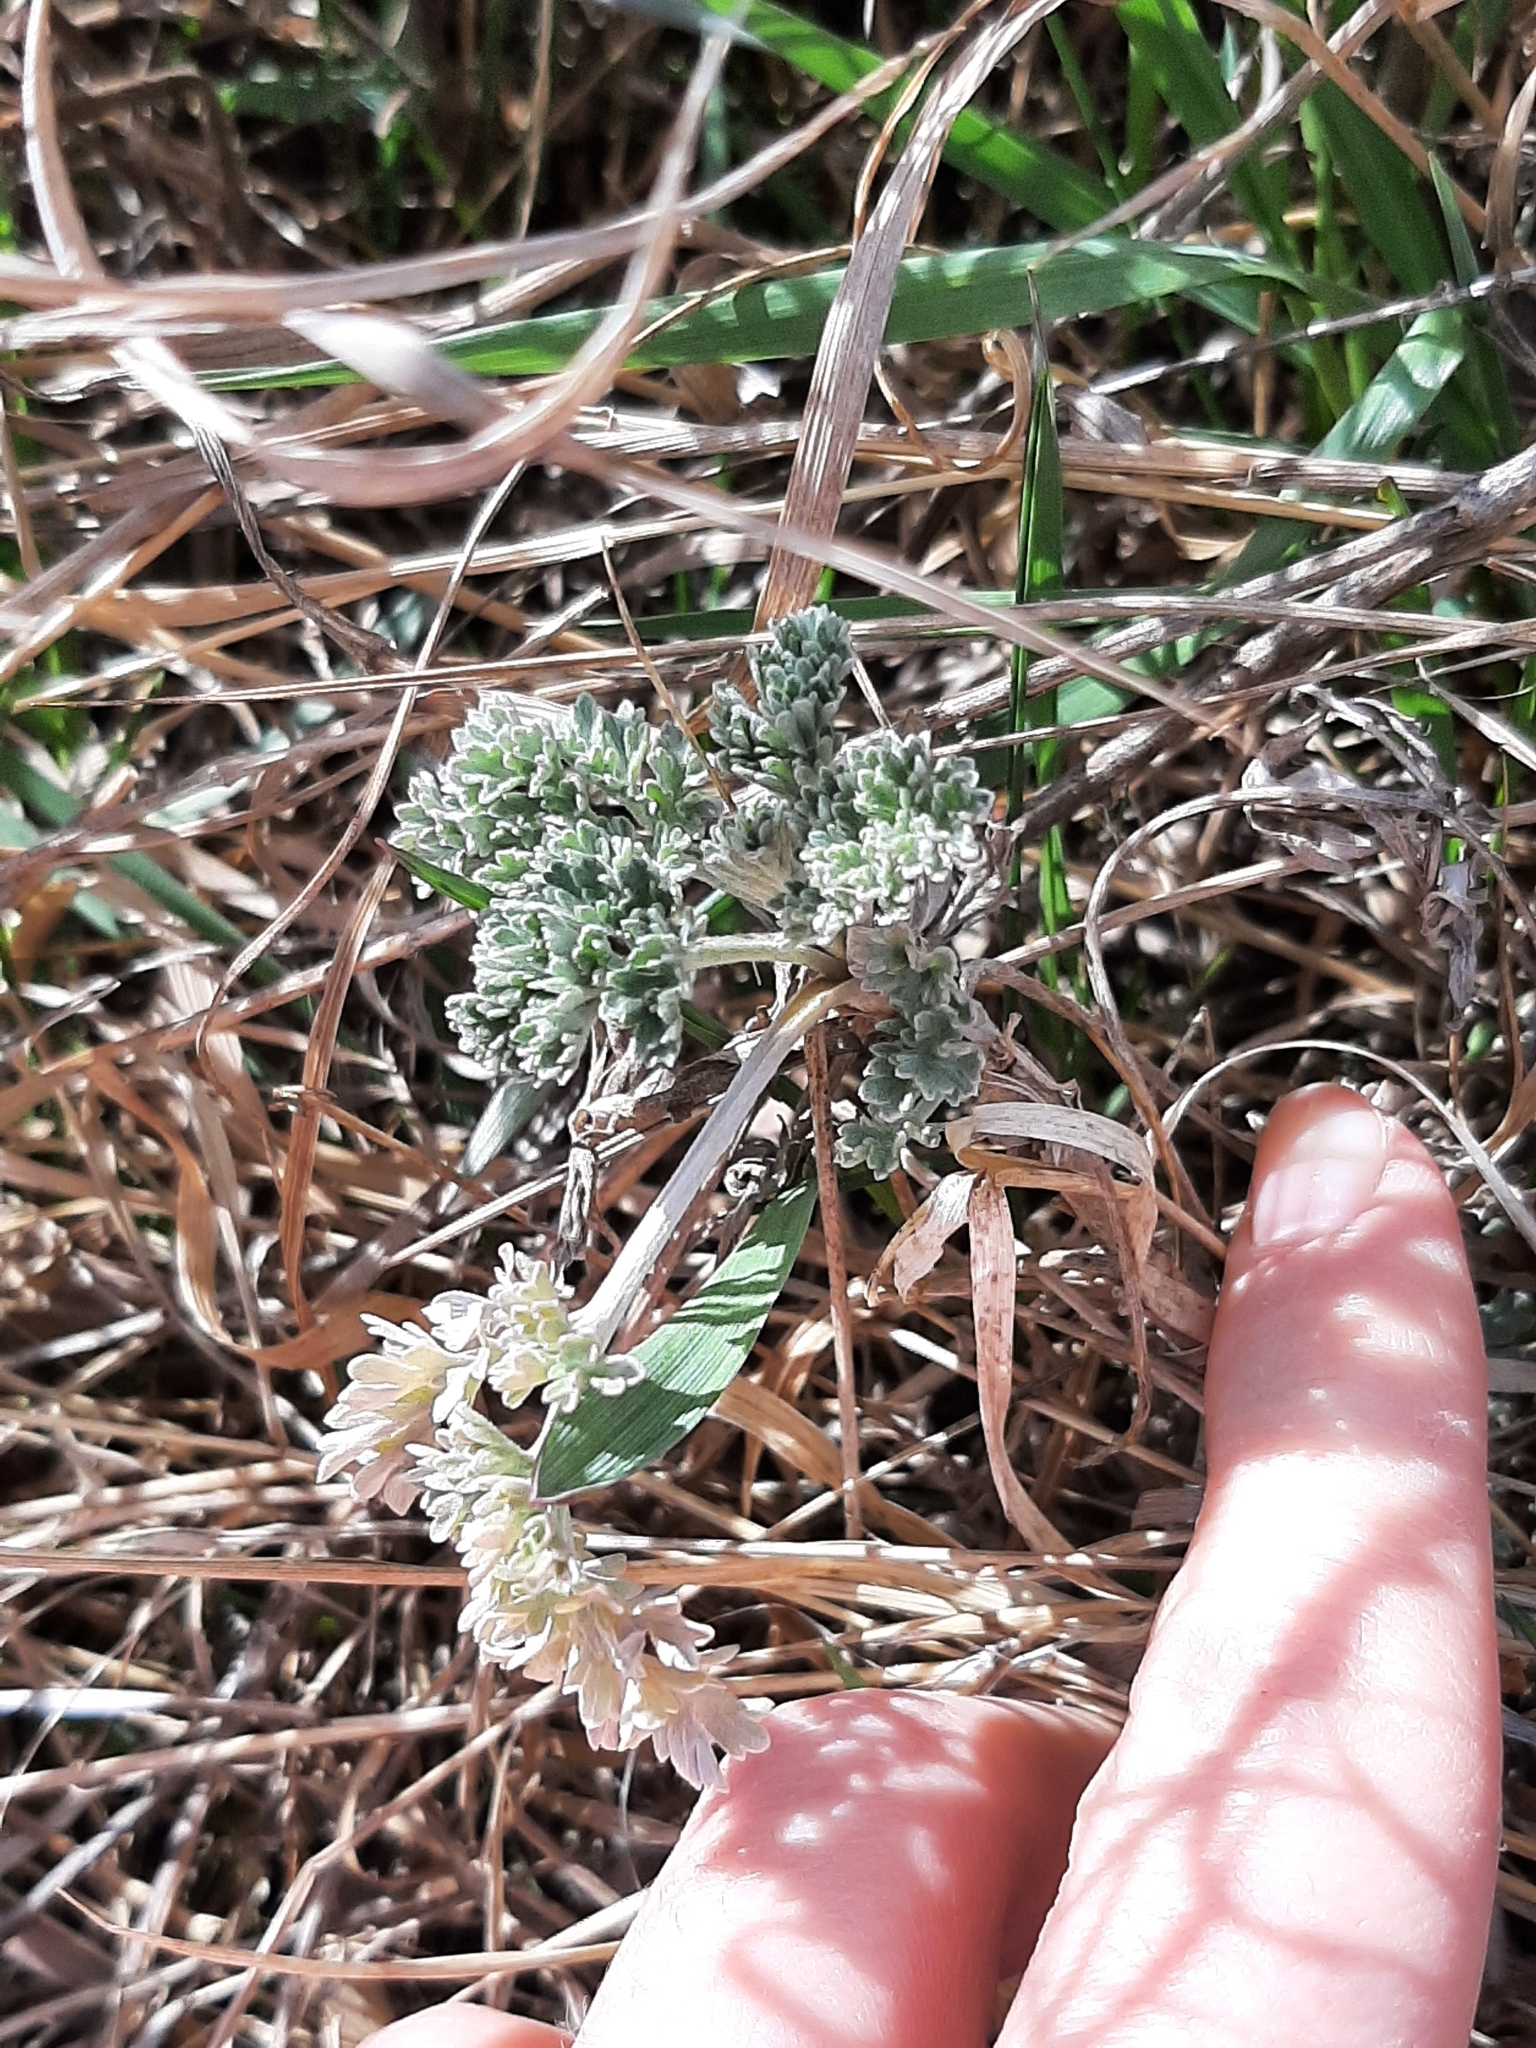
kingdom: Plantae
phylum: Tracheophyta
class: Magnoliopsida
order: Asterales
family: Asteraceae
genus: Artemisia
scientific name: Artemisia absinthium
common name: Wormwood
